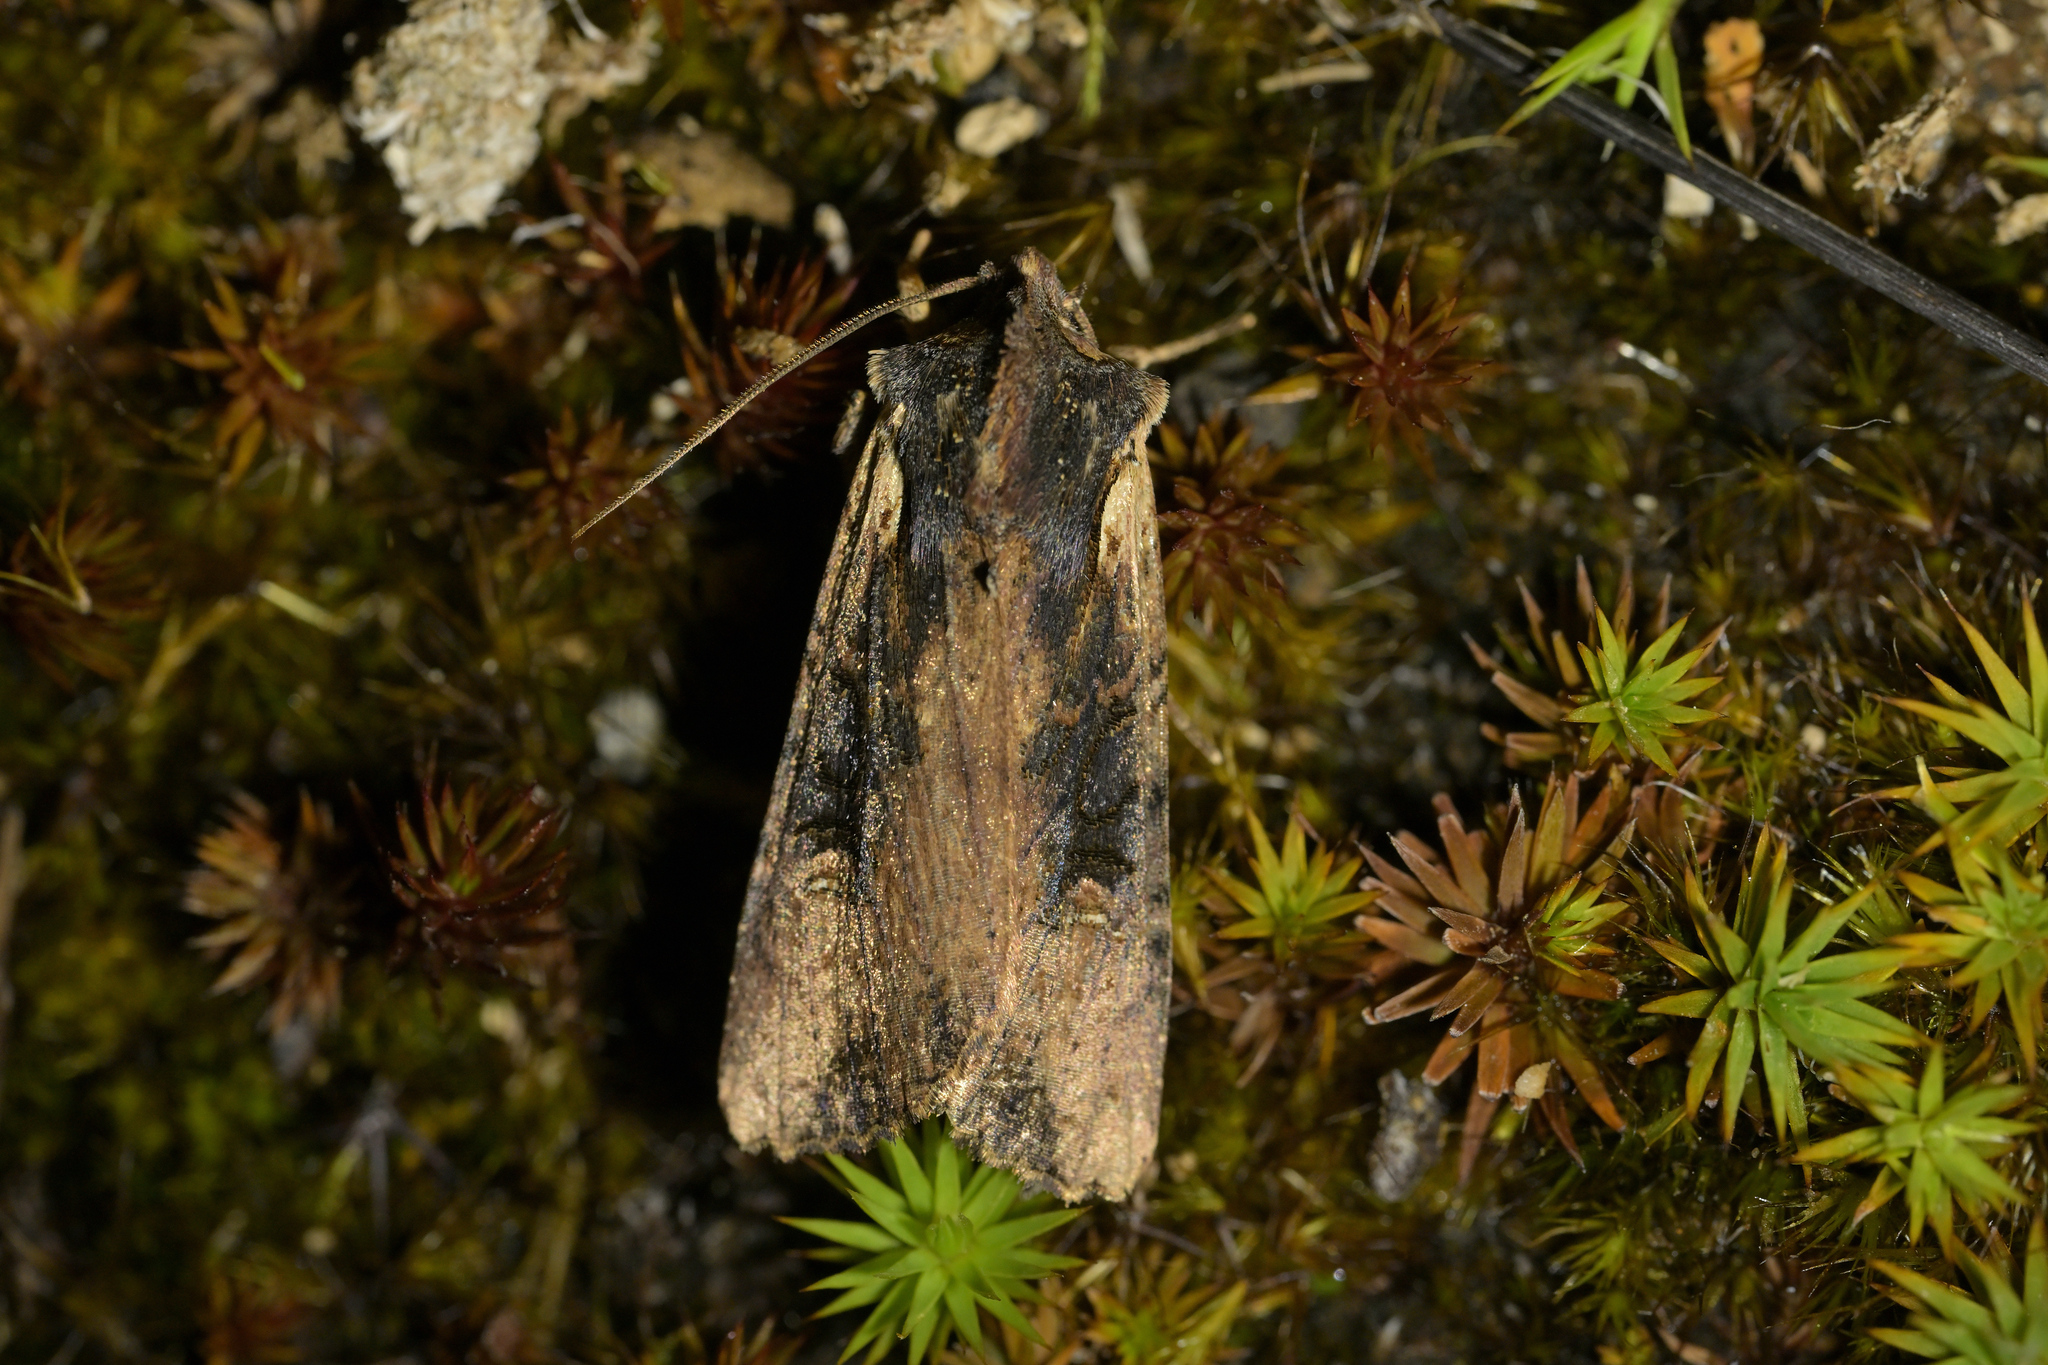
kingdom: Animalia
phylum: Arthropoda
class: Insecta
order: Lepidoptera
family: Noctuidae
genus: Ichneutica
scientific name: Ichneutica omoplaca
